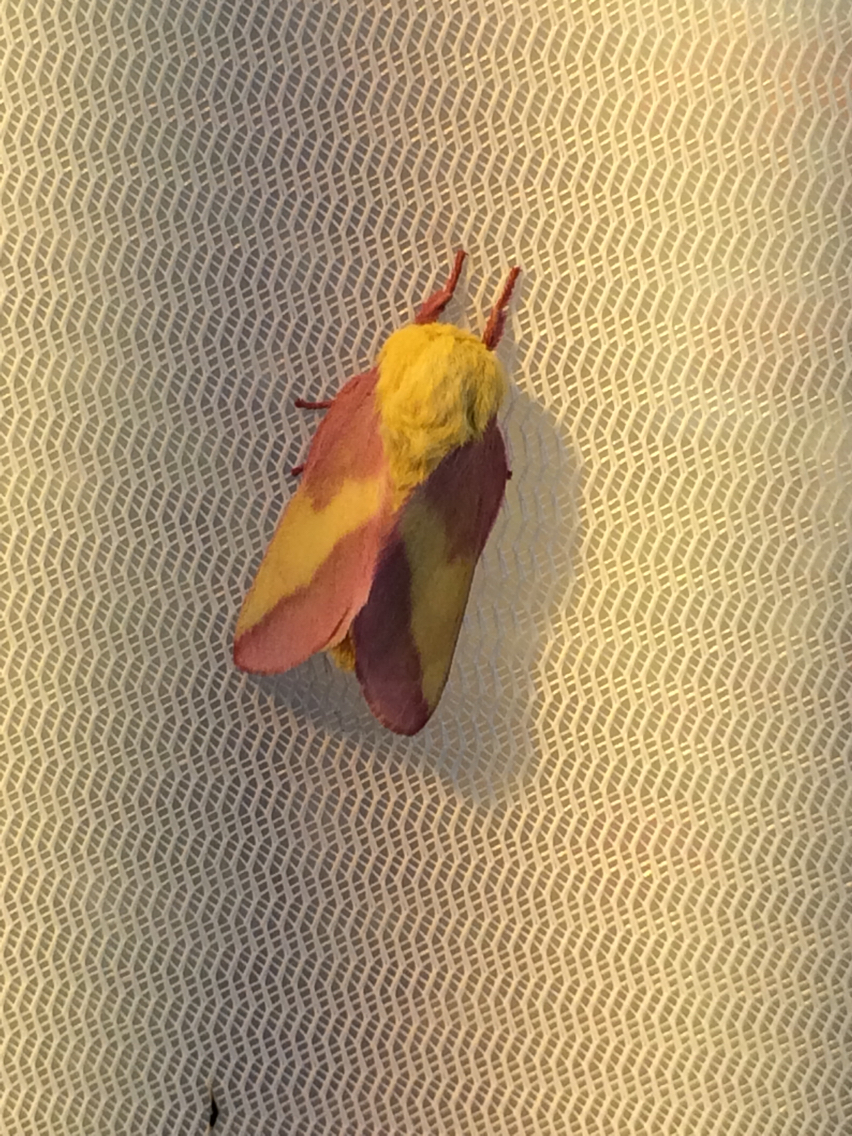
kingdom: Animalia
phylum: Arthropoda
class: Insecta
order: Lepidoptera
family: Saturniidae
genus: Dryocampa
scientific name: Dryocampa rubicunda
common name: Rosy maple moth
